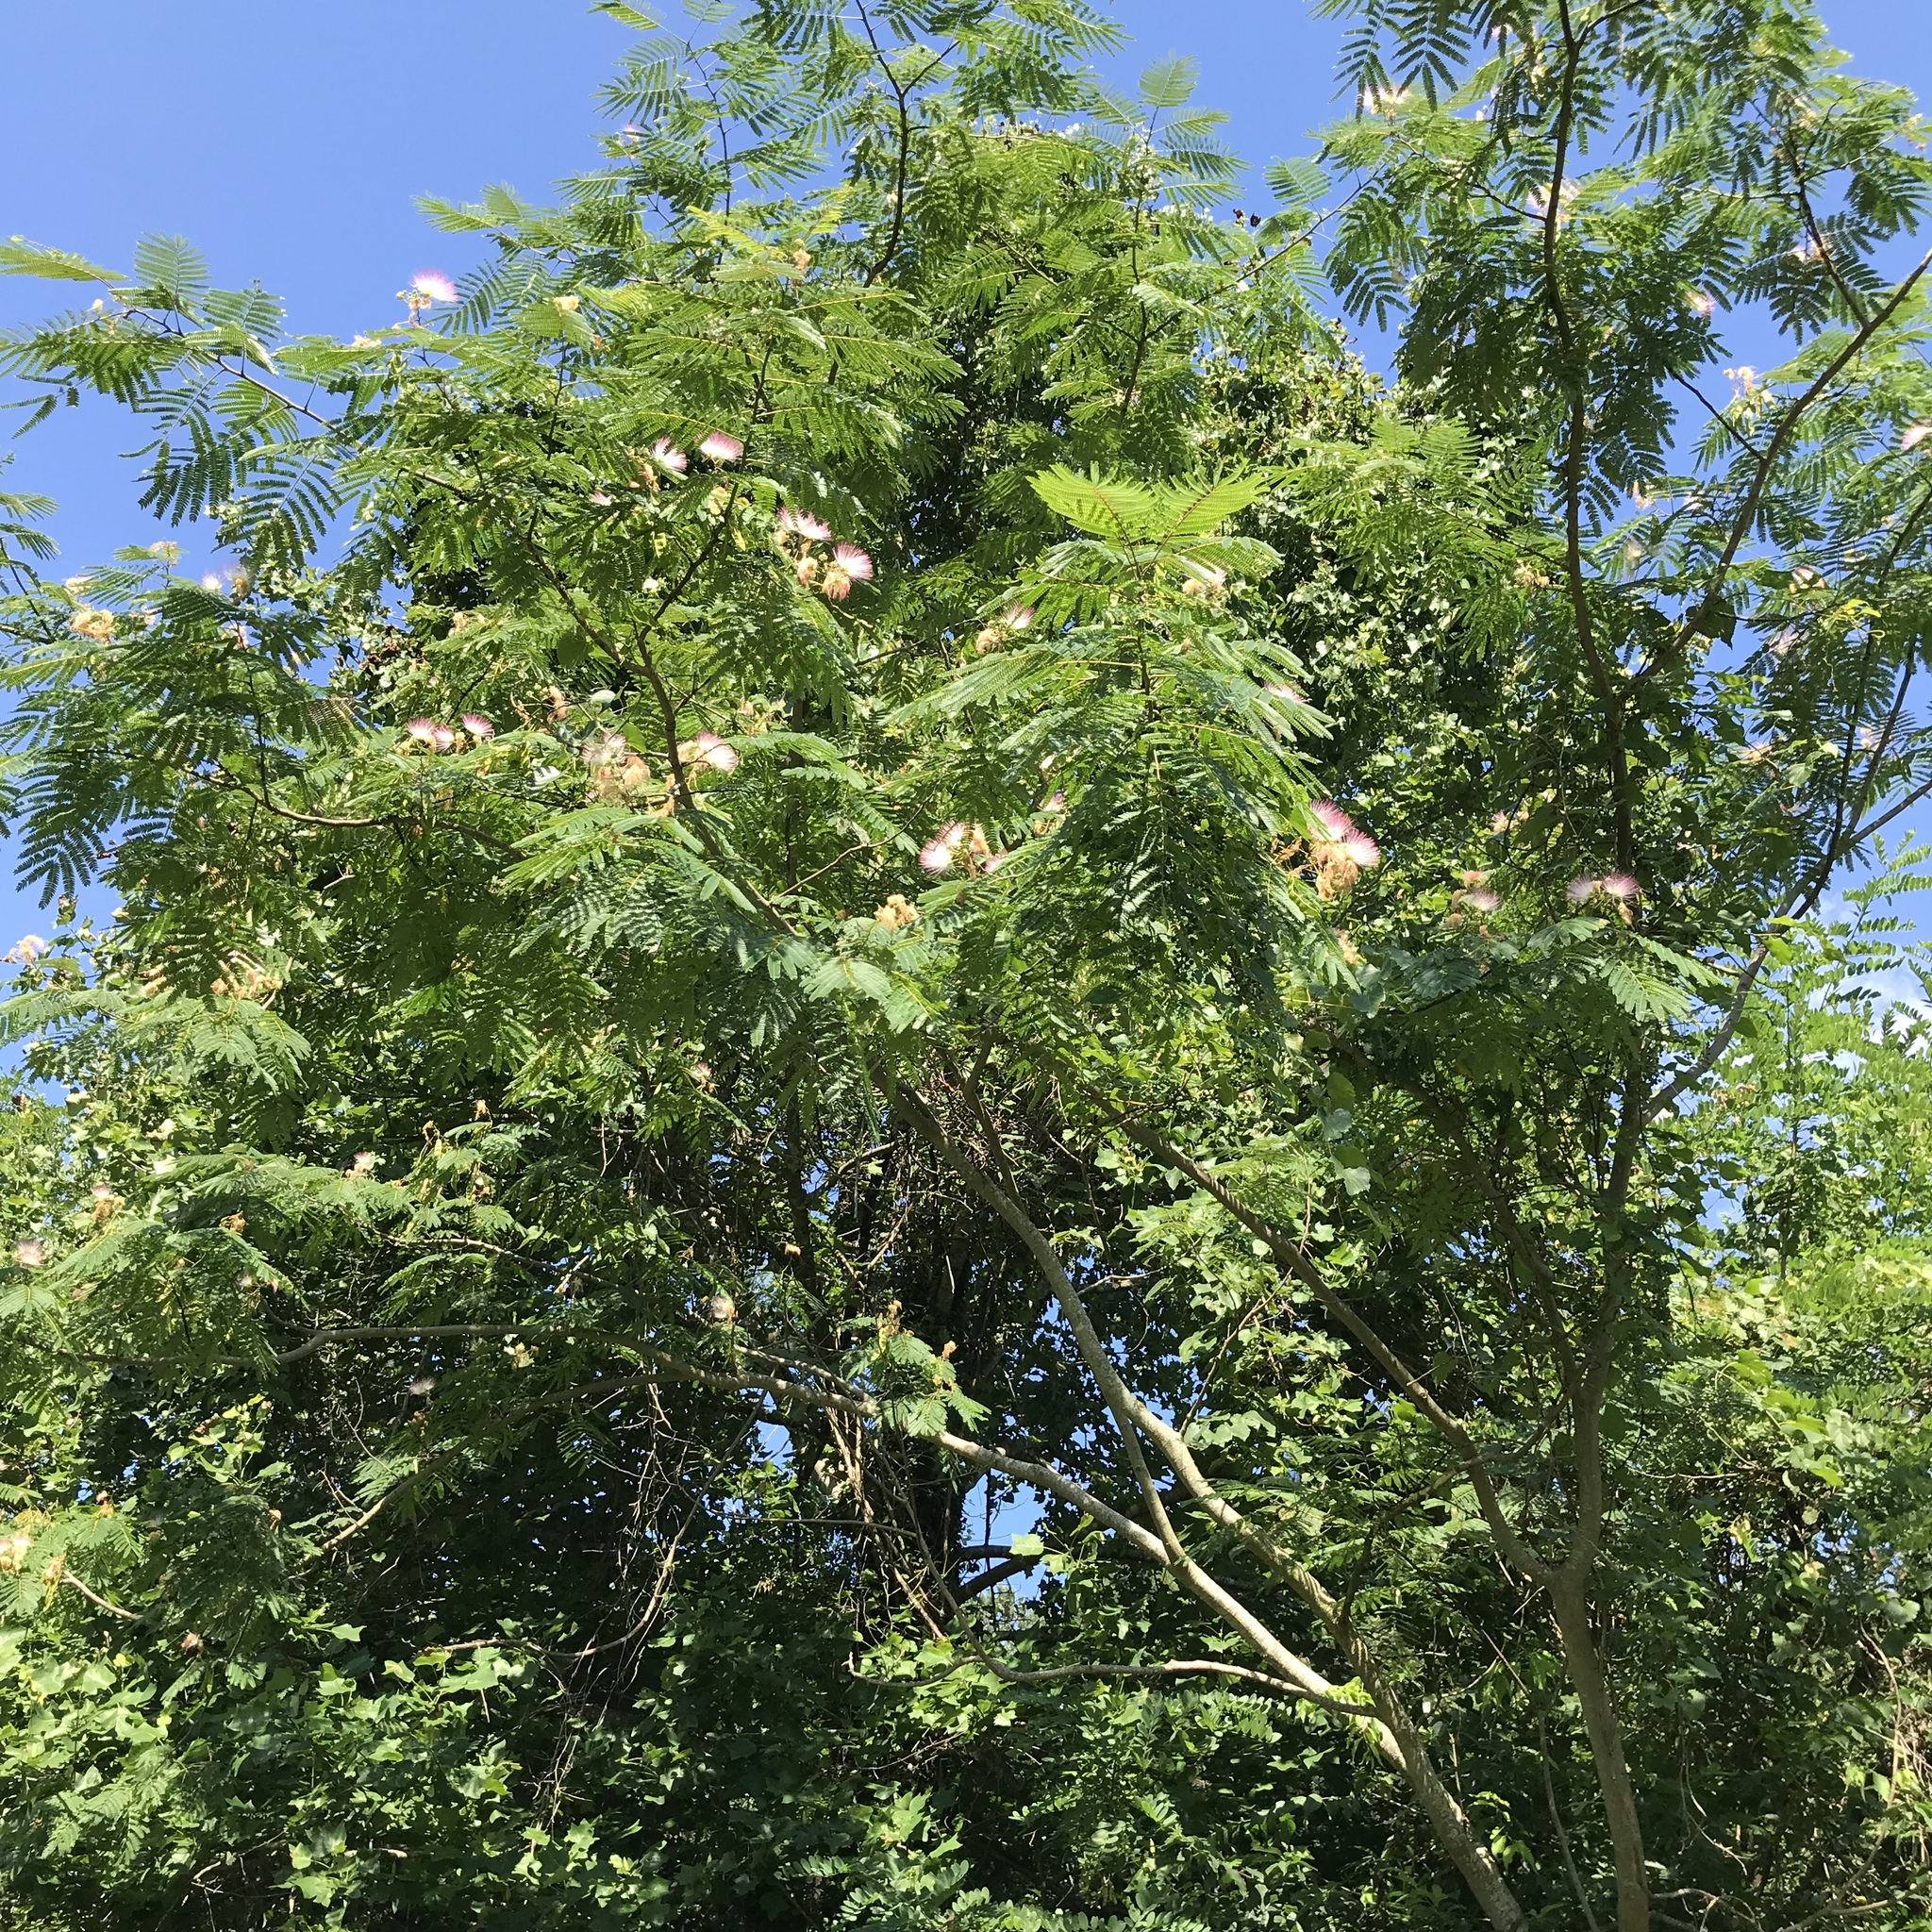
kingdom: Plantae
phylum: Tracheophyta
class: Magnoliopsida
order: Fabales
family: Fabaceae
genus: Albizia
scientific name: Albizia julibrissin
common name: Silktree
